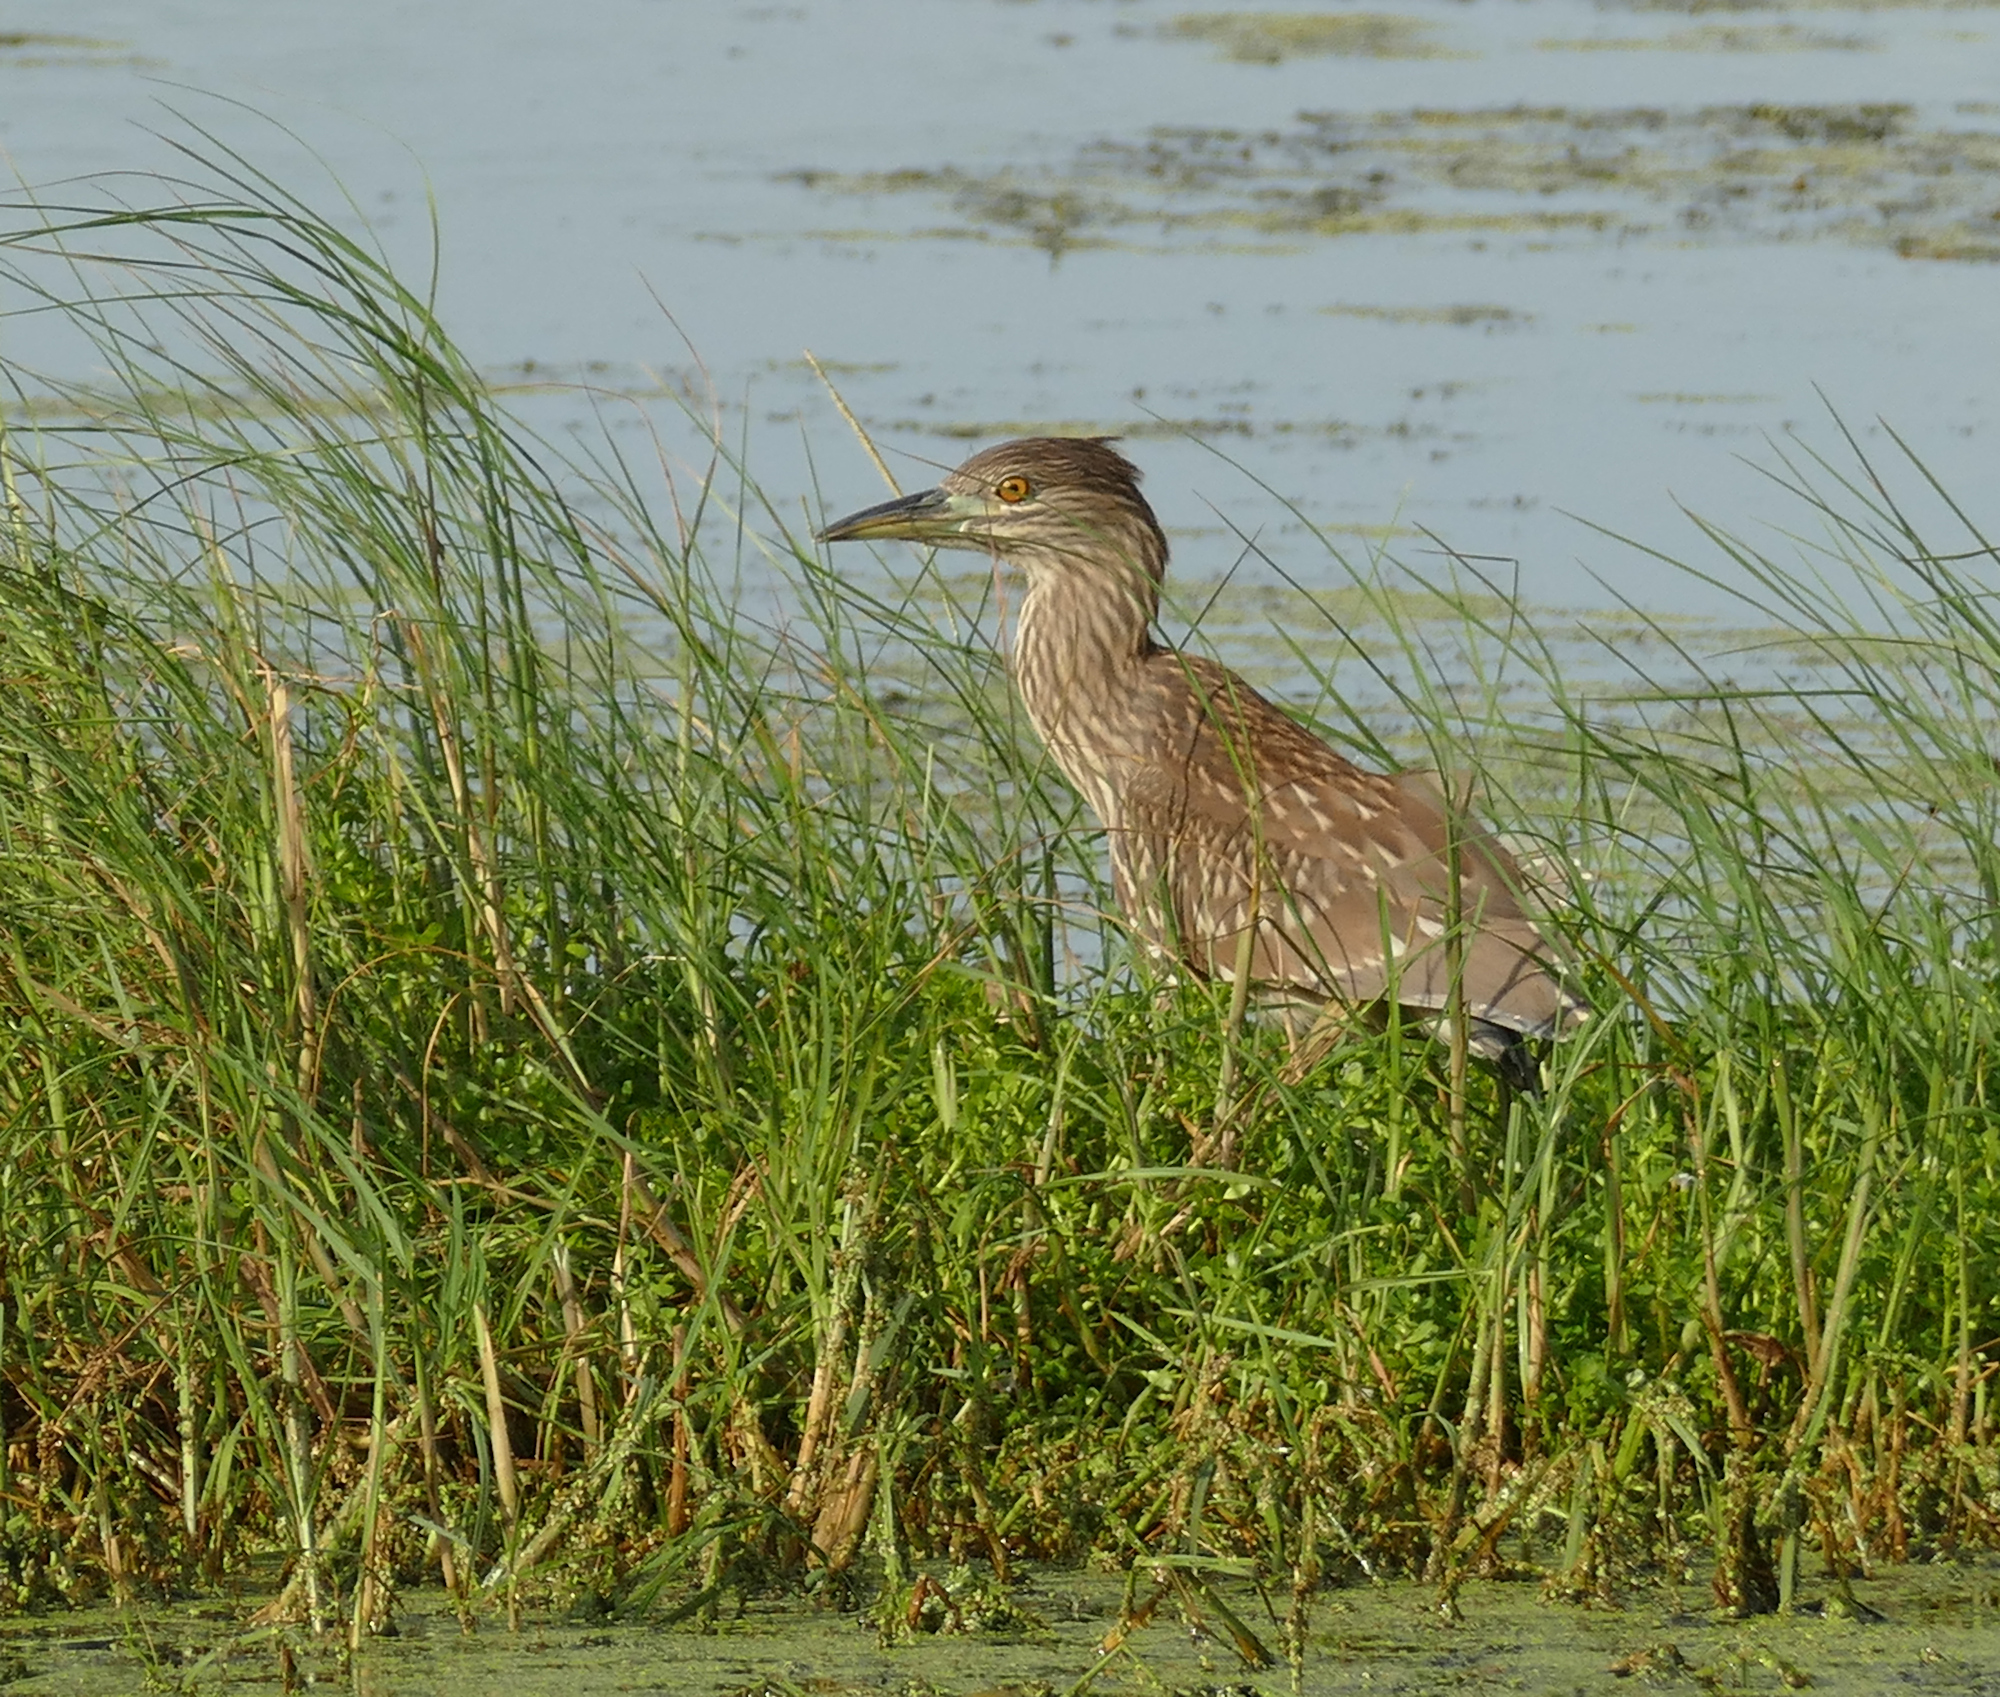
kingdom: Animalia
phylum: Chordata
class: Aves
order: Pelecaniformes
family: Ardeidae
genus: Nycticorax
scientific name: Nycticorax nycticorax
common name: Black-crowned night heron
